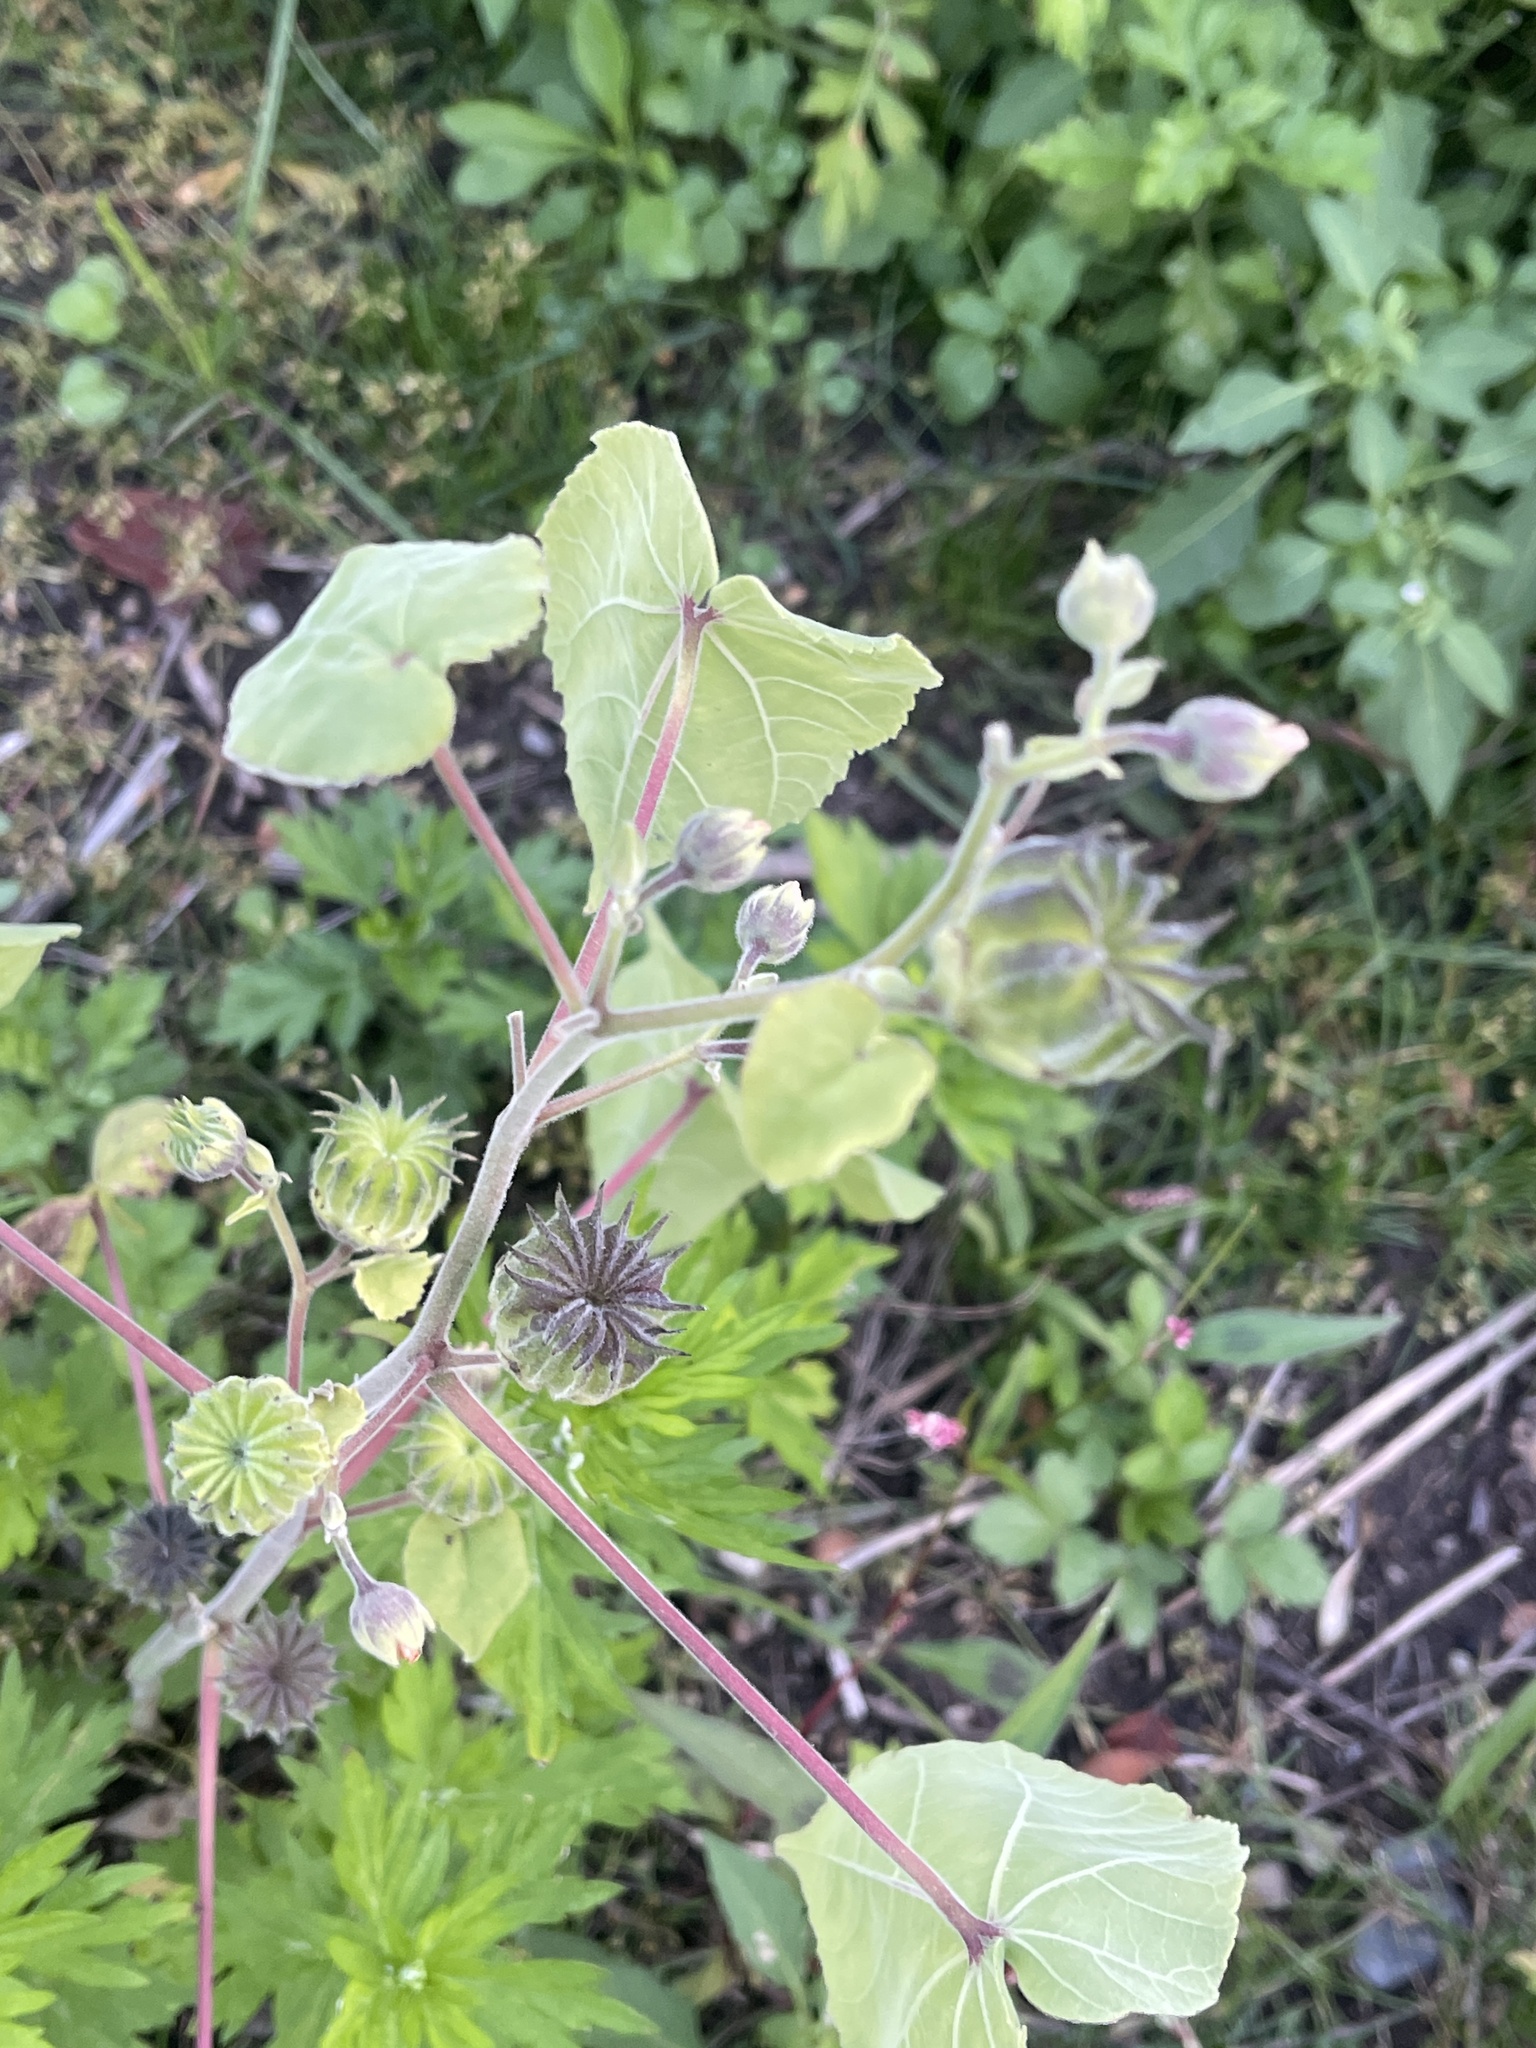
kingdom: Plantae
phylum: Tracheophyta
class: Magnoliopsida
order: Malvales
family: Malvaceae
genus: Abutilon
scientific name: Abutilon theophrasti
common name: Velvetleaf
